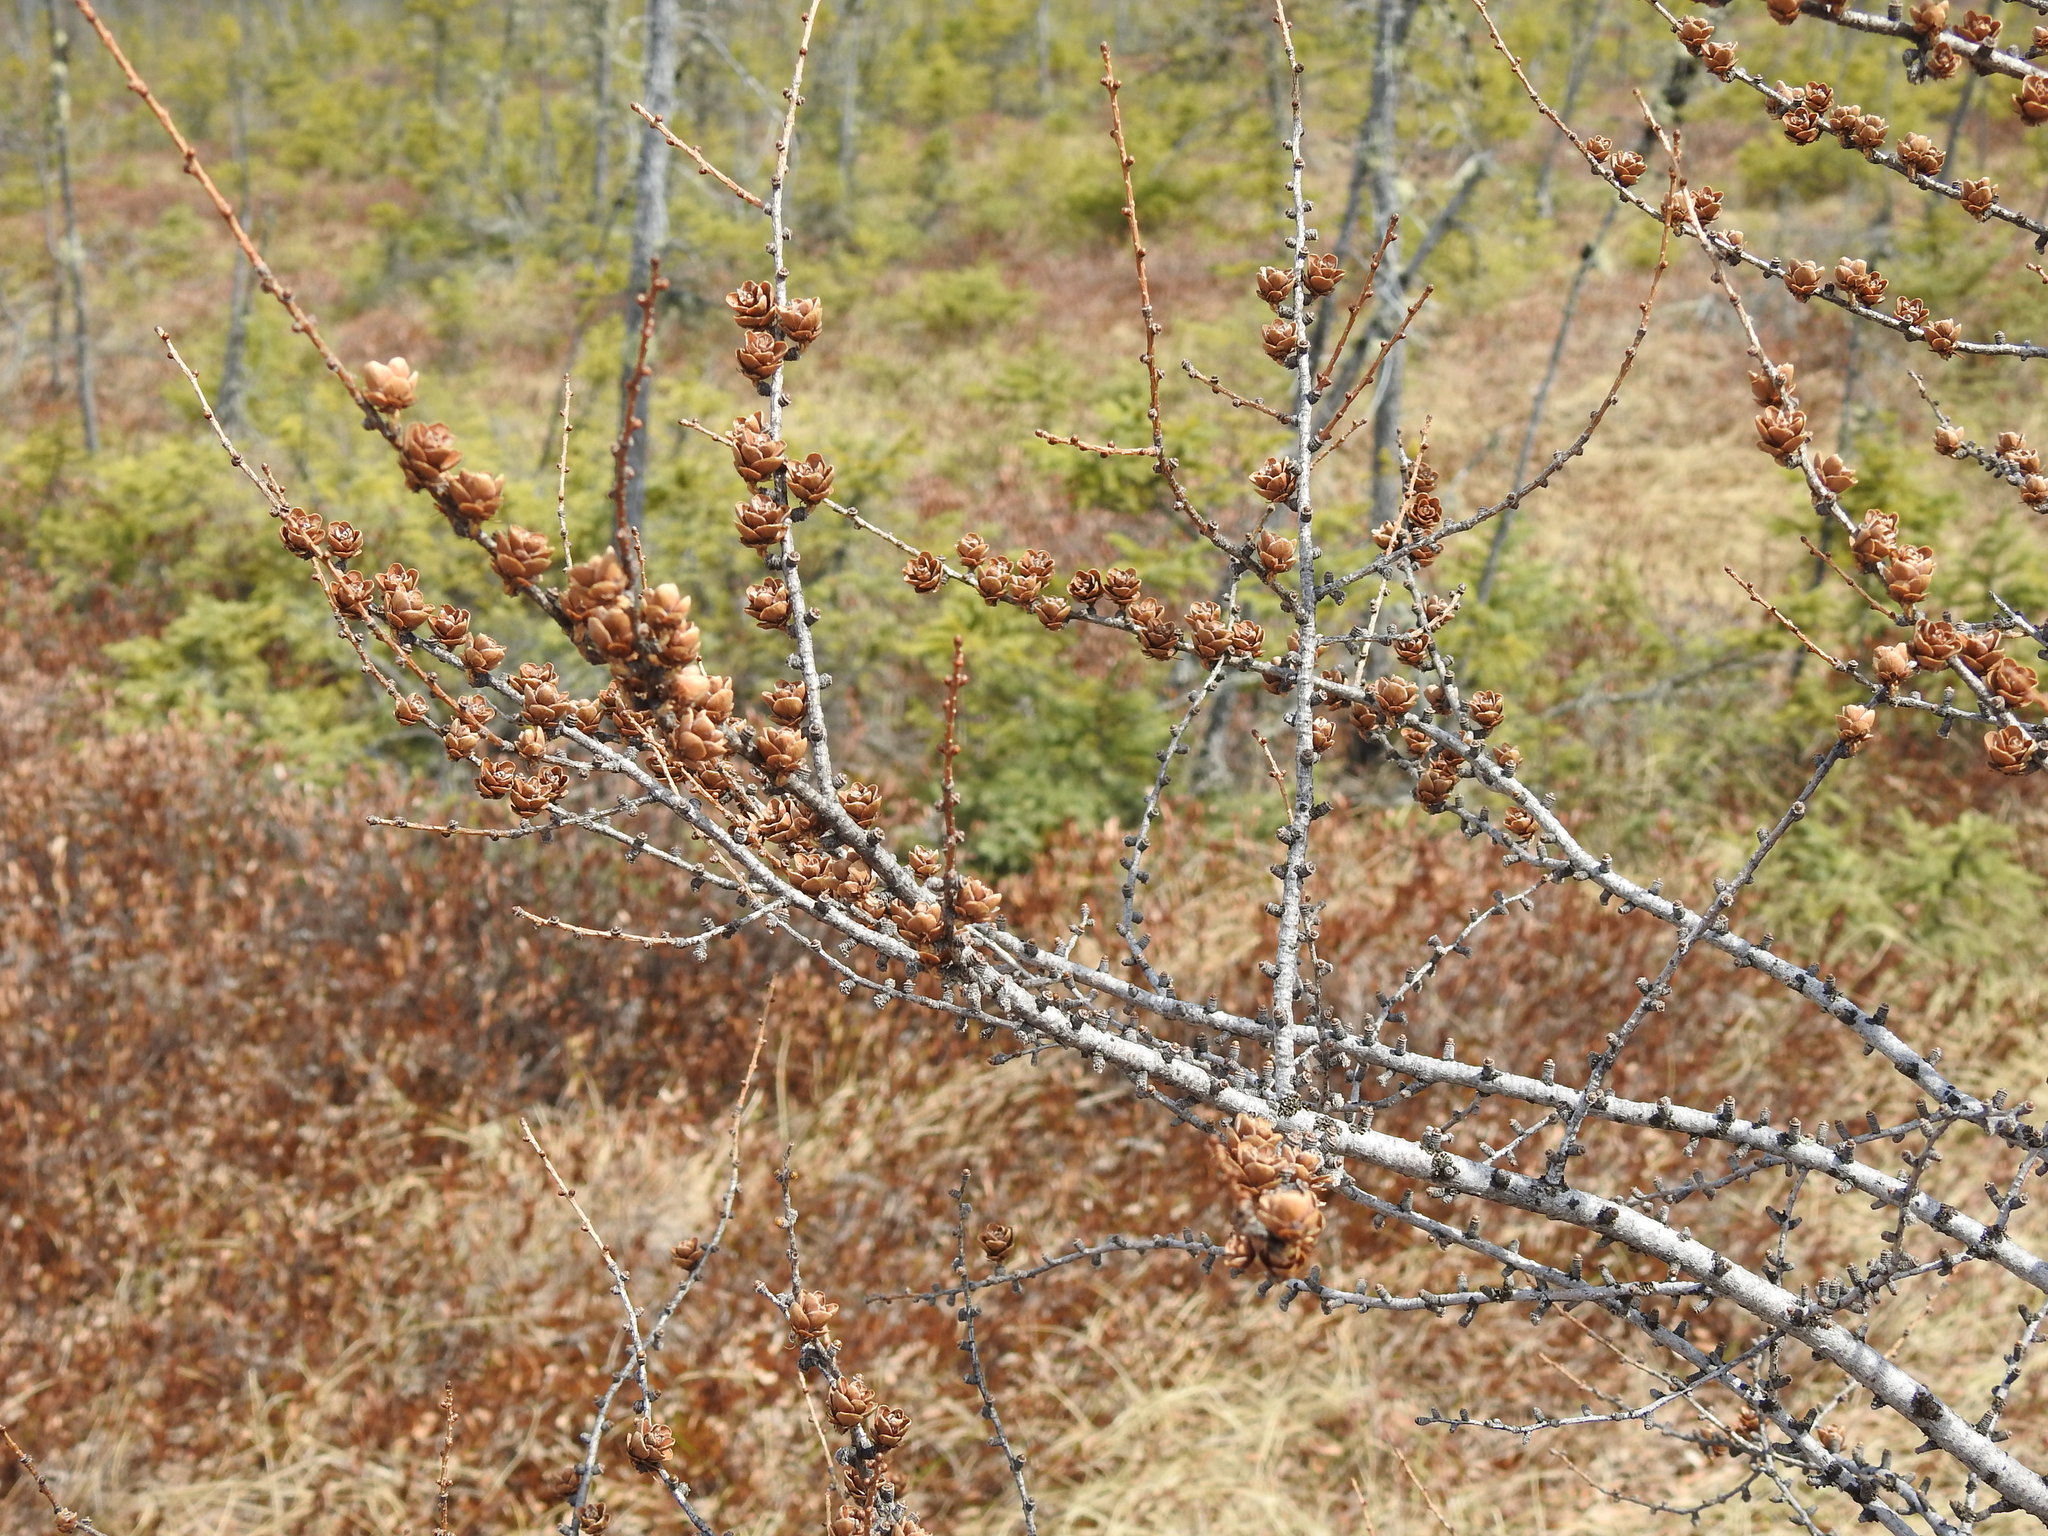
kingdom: Plantae
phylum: Tracheophyta
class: Pinopsida
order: Pinales
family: Pinaceae
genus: Larix
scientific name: Larix laricina
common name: American larch
